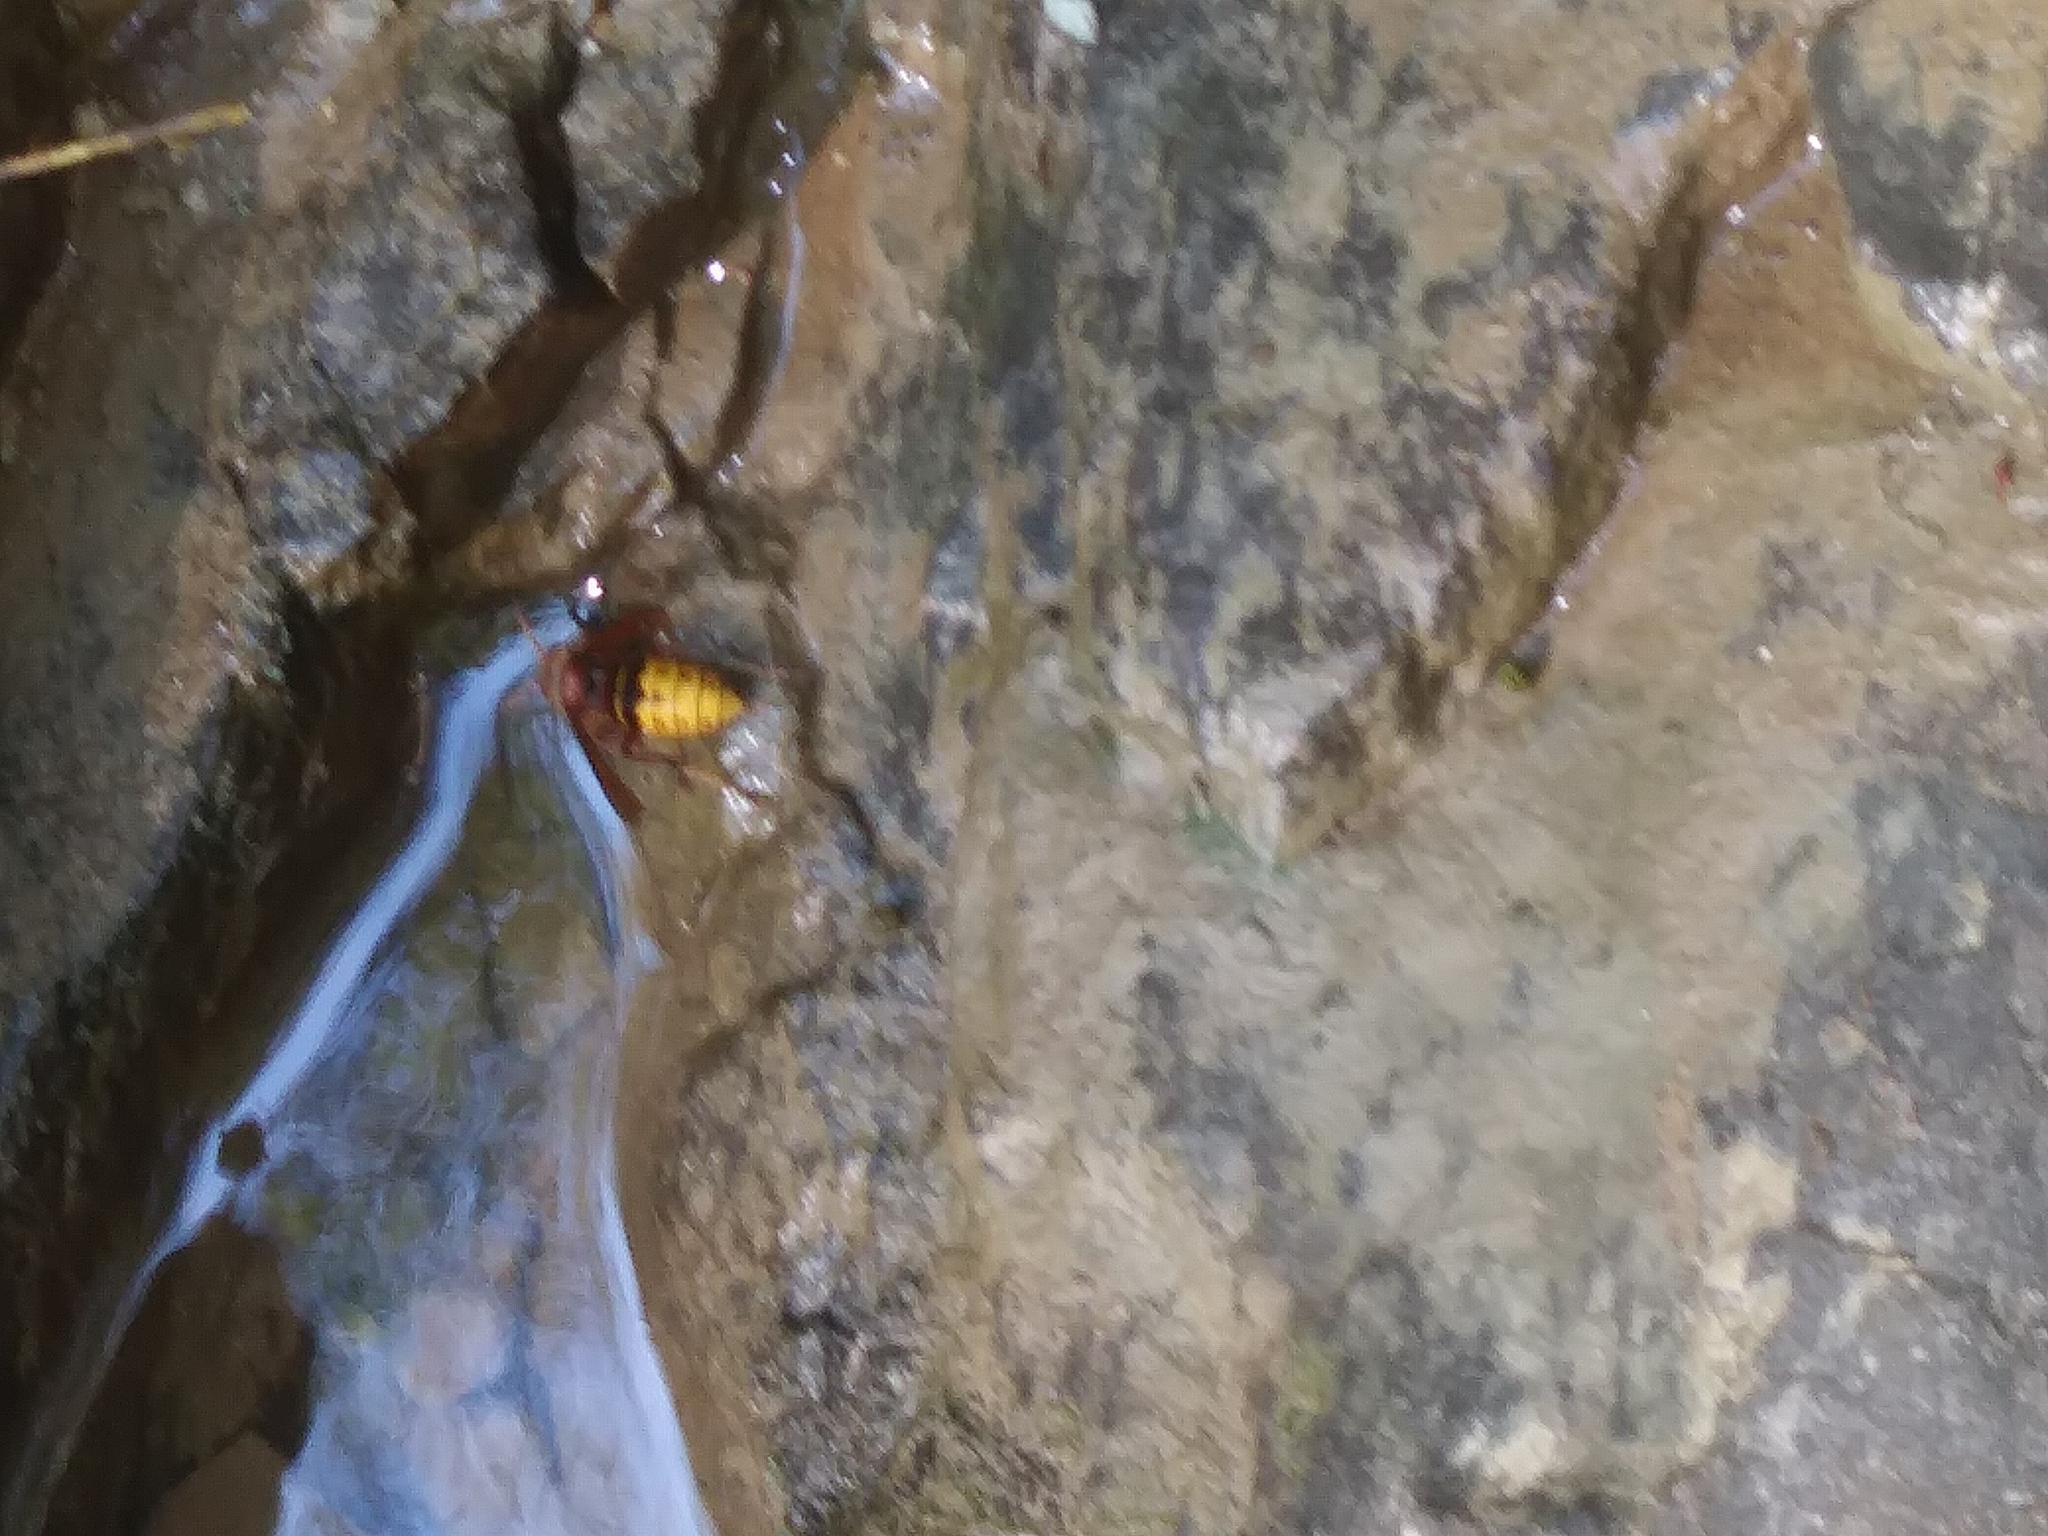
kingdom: Animalia
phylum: Arthropoda
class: Insecta
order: Hymenoptera
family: Vespidae
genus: Vespa
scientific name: Vespa crabro
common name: Hornet
